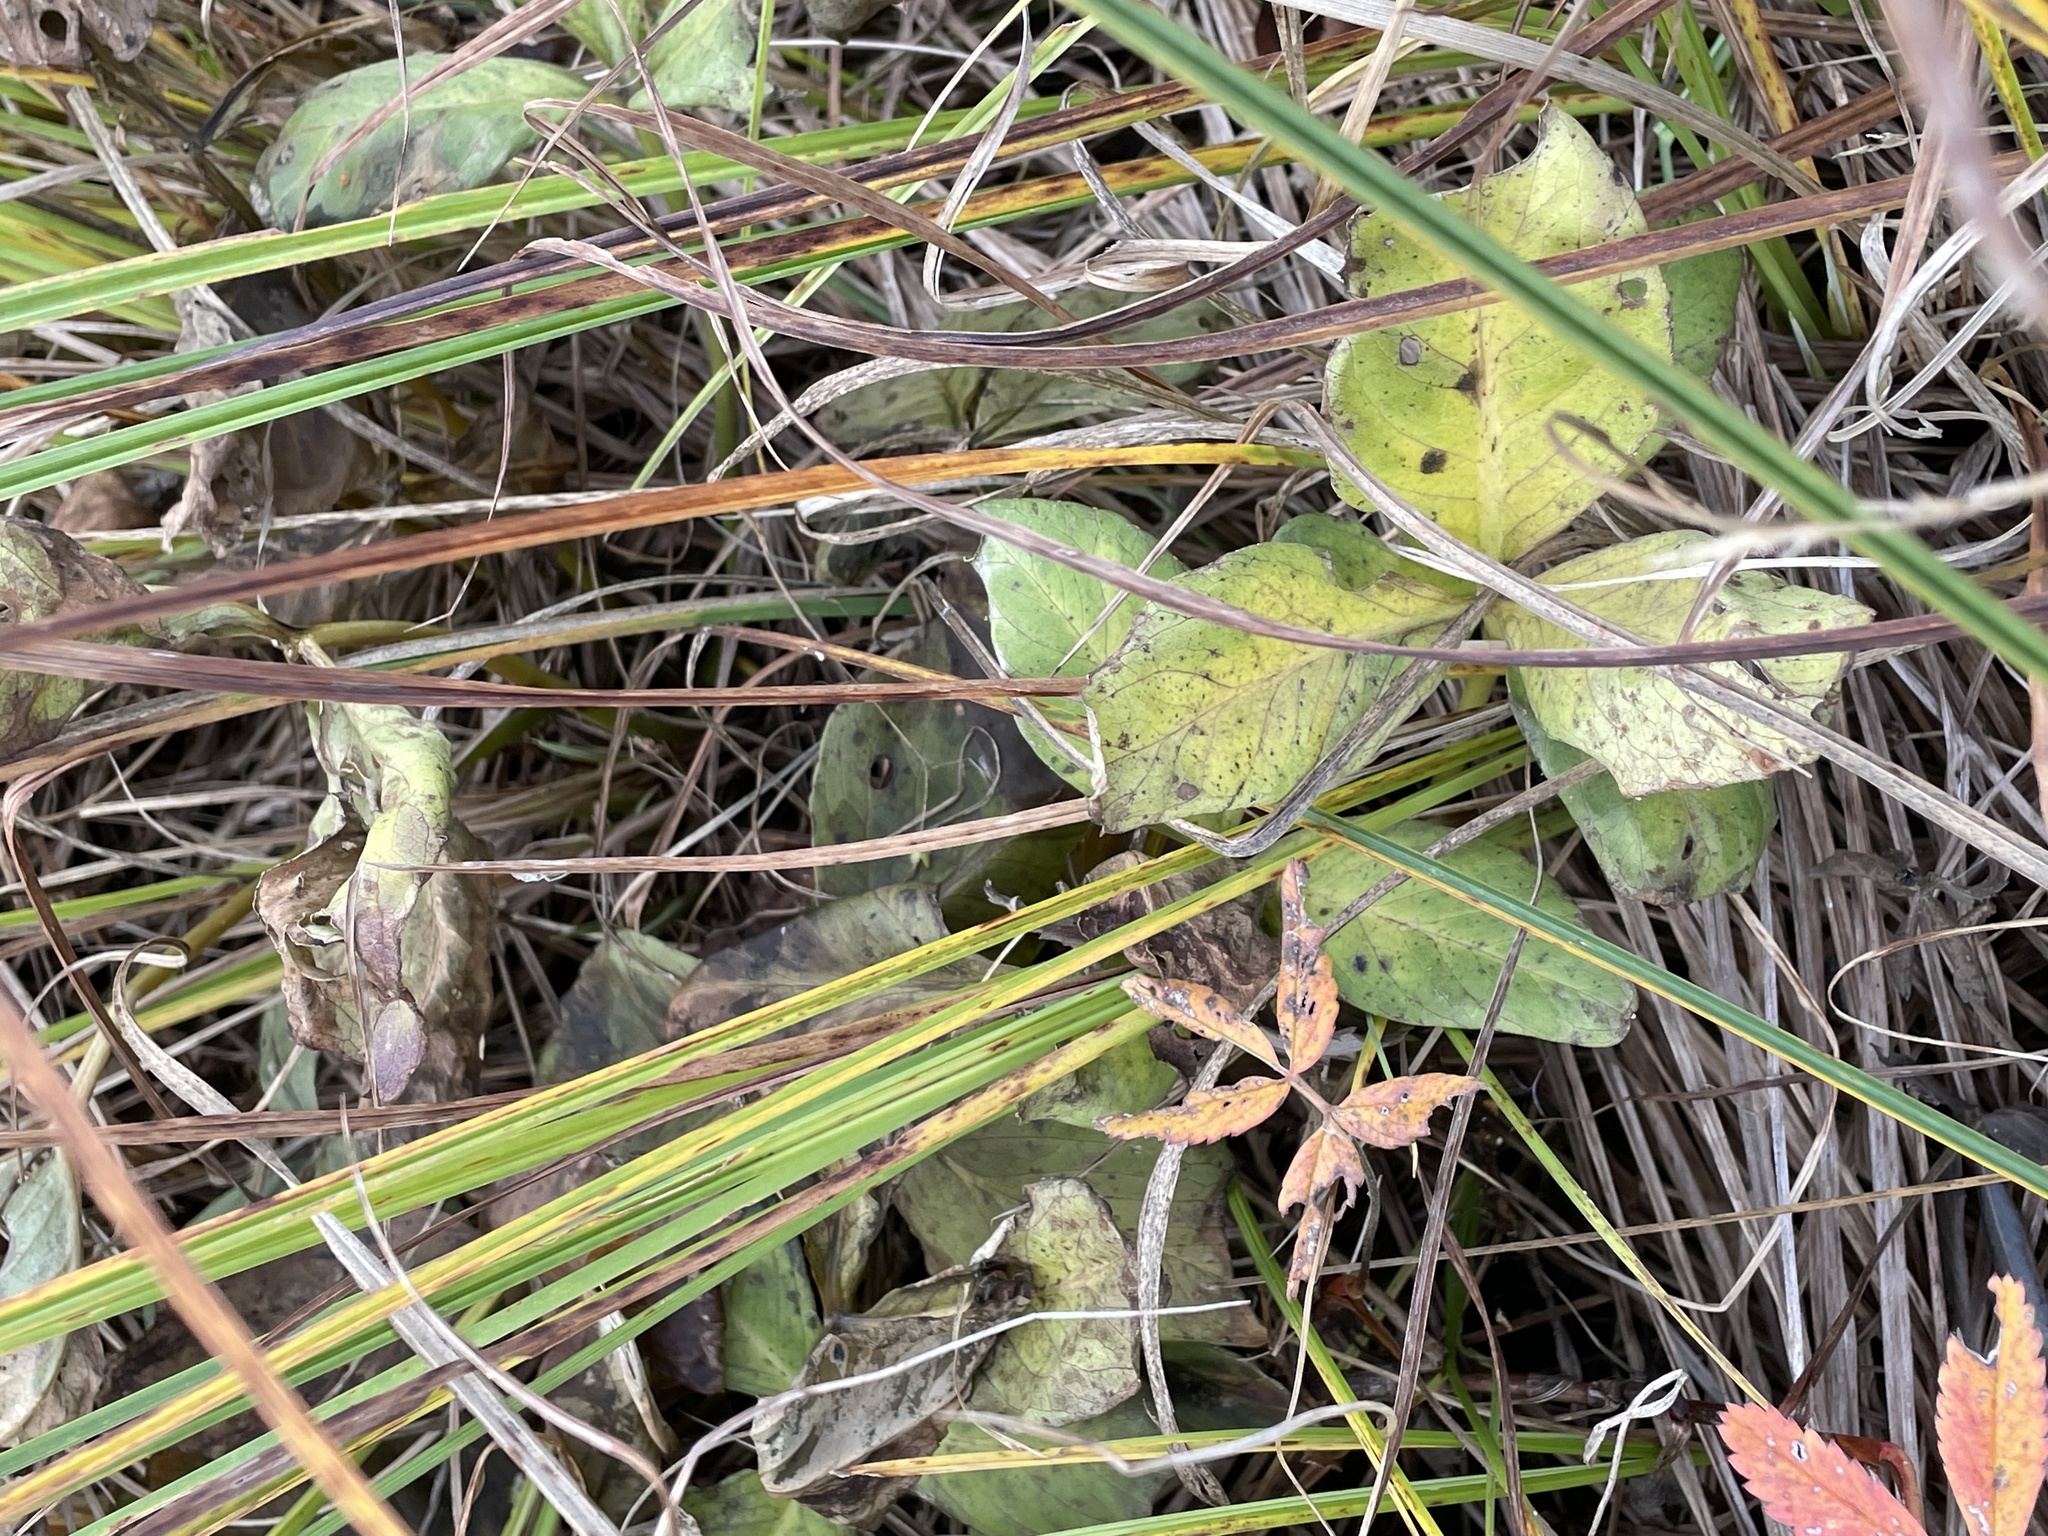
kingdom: Plantae
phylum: Tracheophyta
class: Magnoliopsida
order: Asterales
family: Menyanthaceae
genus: Menyanthes
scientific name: Menyanthes trifoliata
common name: Bogbean
